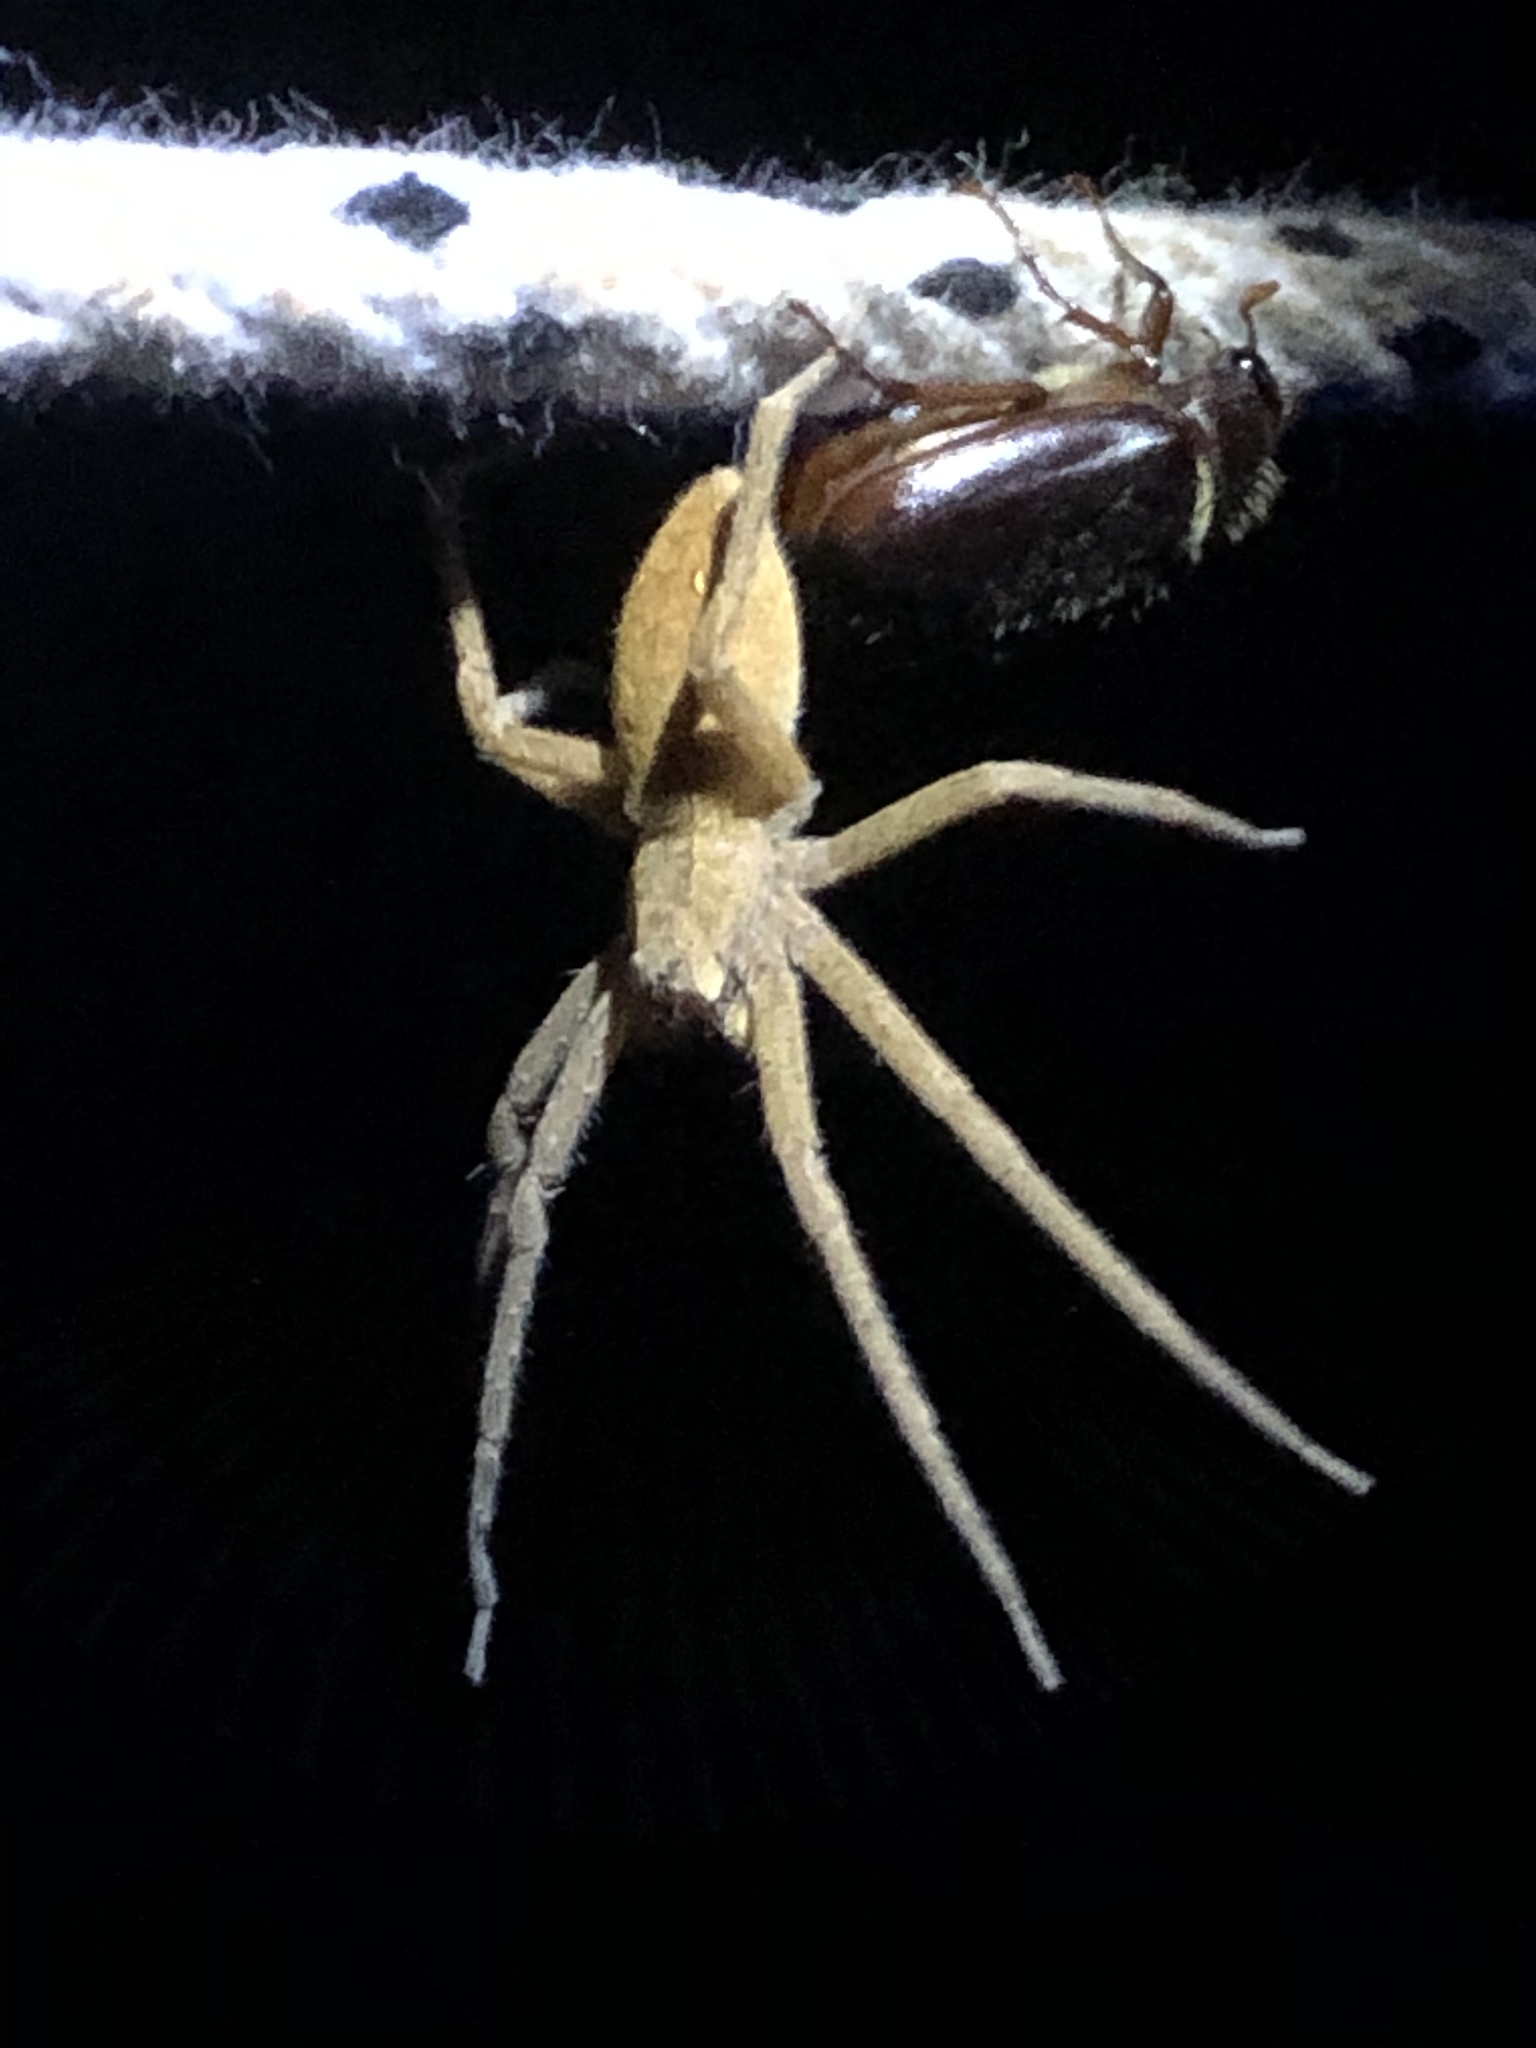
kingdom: Animalia
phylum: Arthropoda
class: Arachnida
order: Araneae
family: Pisauridae
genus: Pisaurina
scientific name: Pisaurina mira
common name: American nursery web spider
